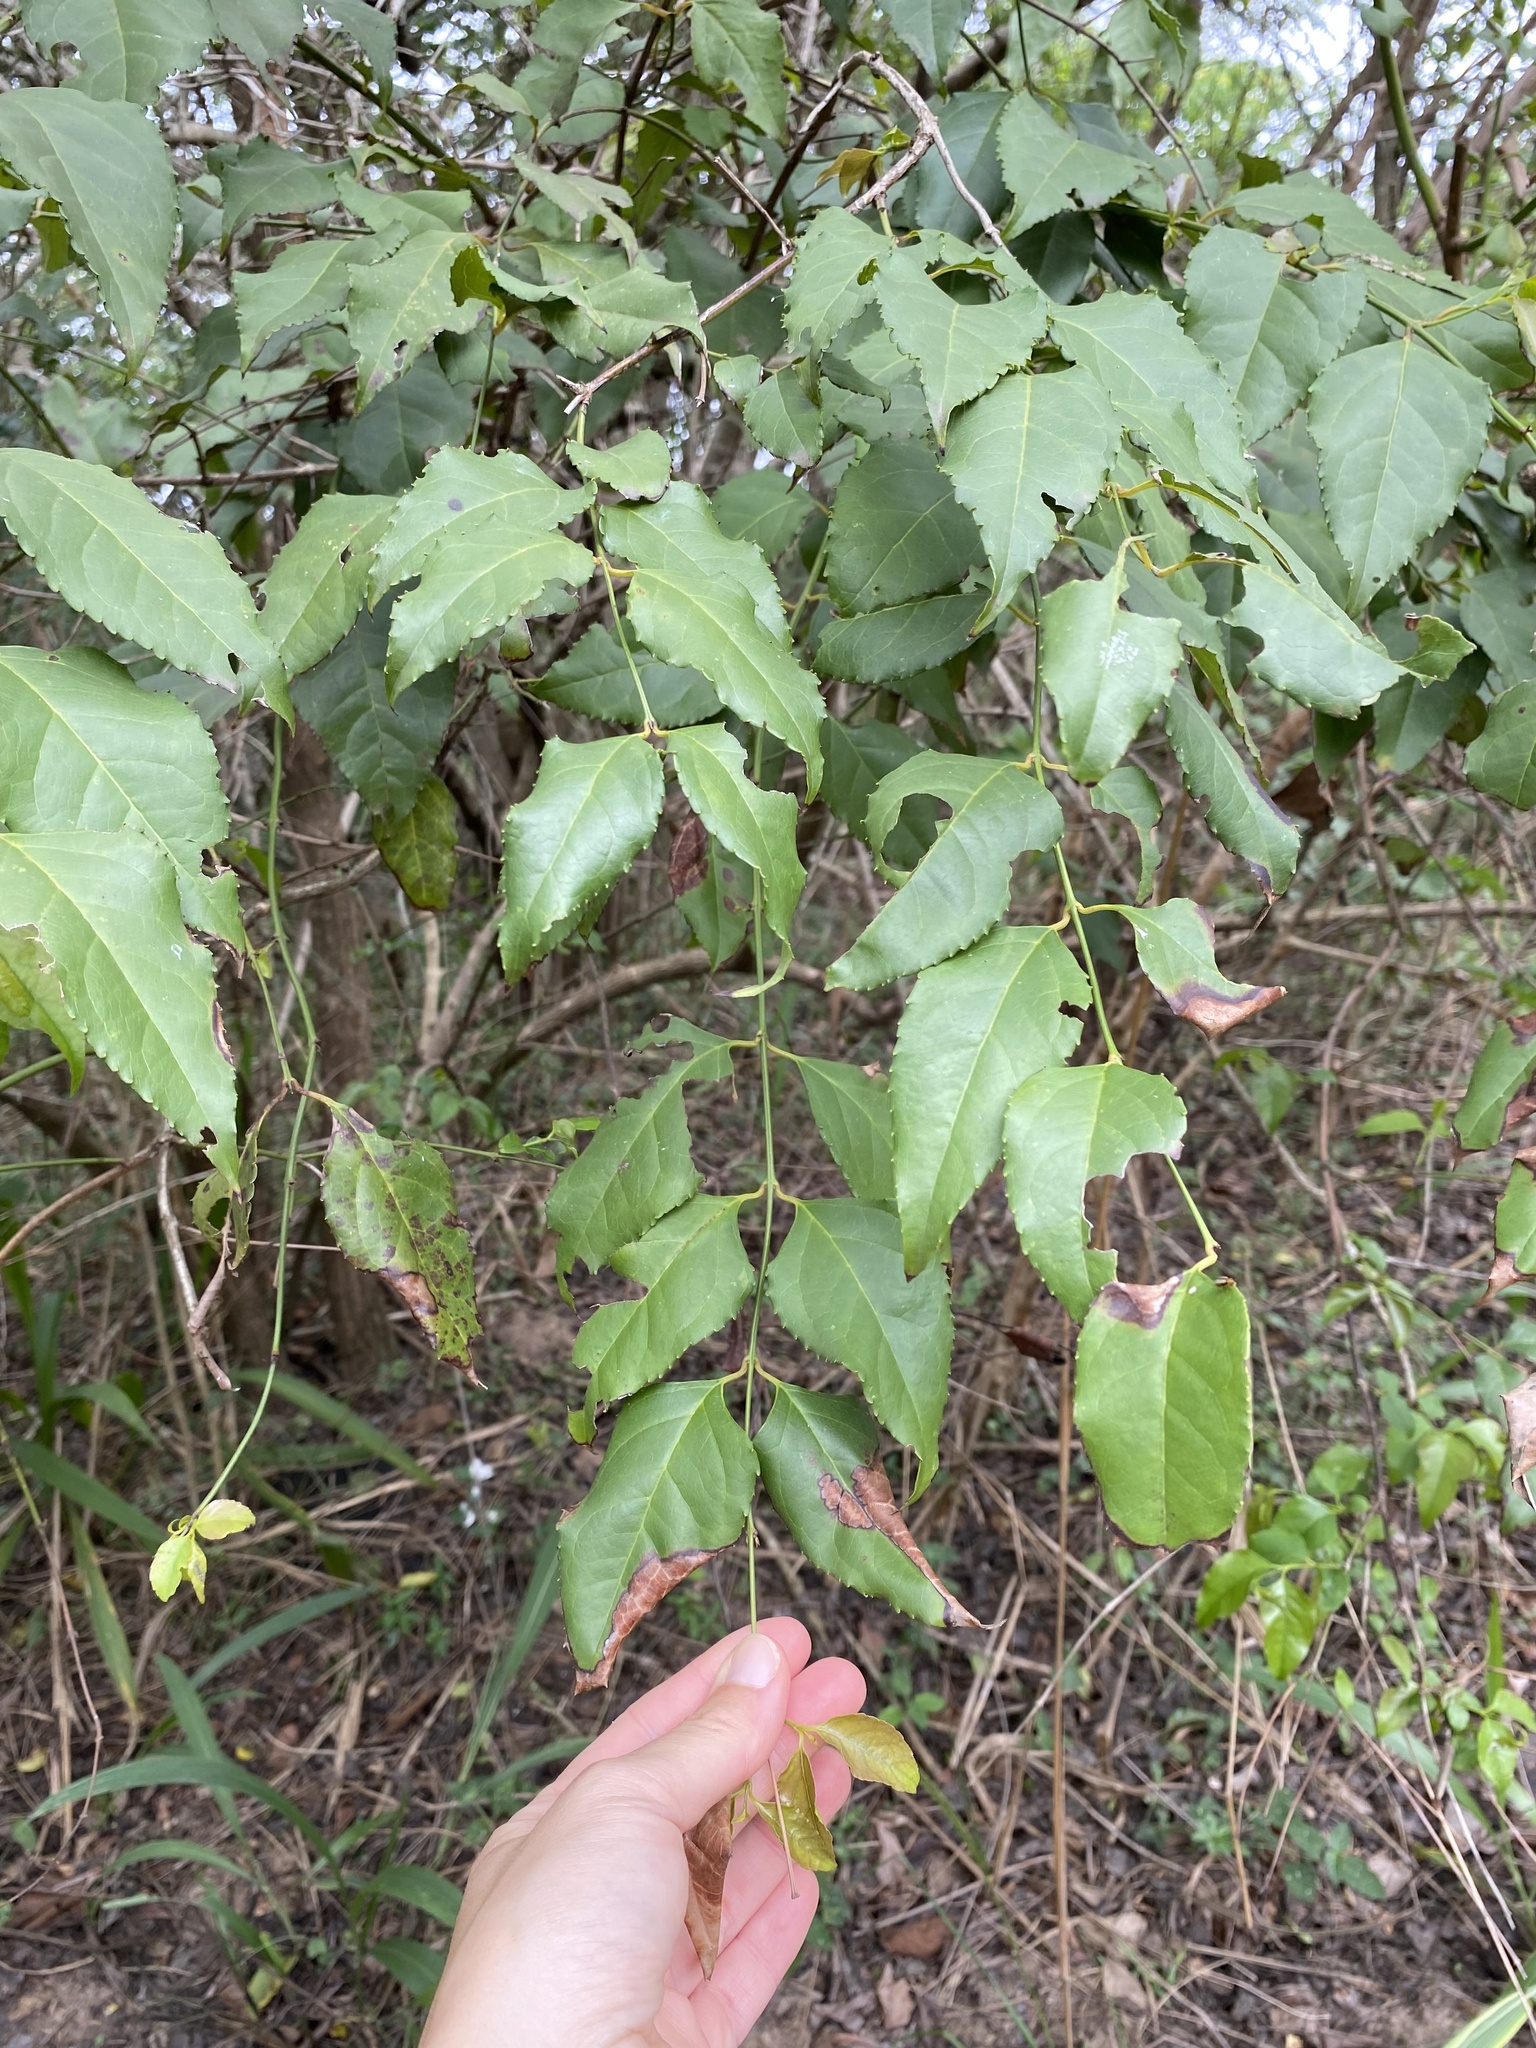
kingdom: Plantae
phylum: Tracheophyta
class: Magnoliopsida
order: Lamiales
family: Stilbaceae
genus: Halleria
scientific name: Halleria lucida
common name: Tree fuschia
